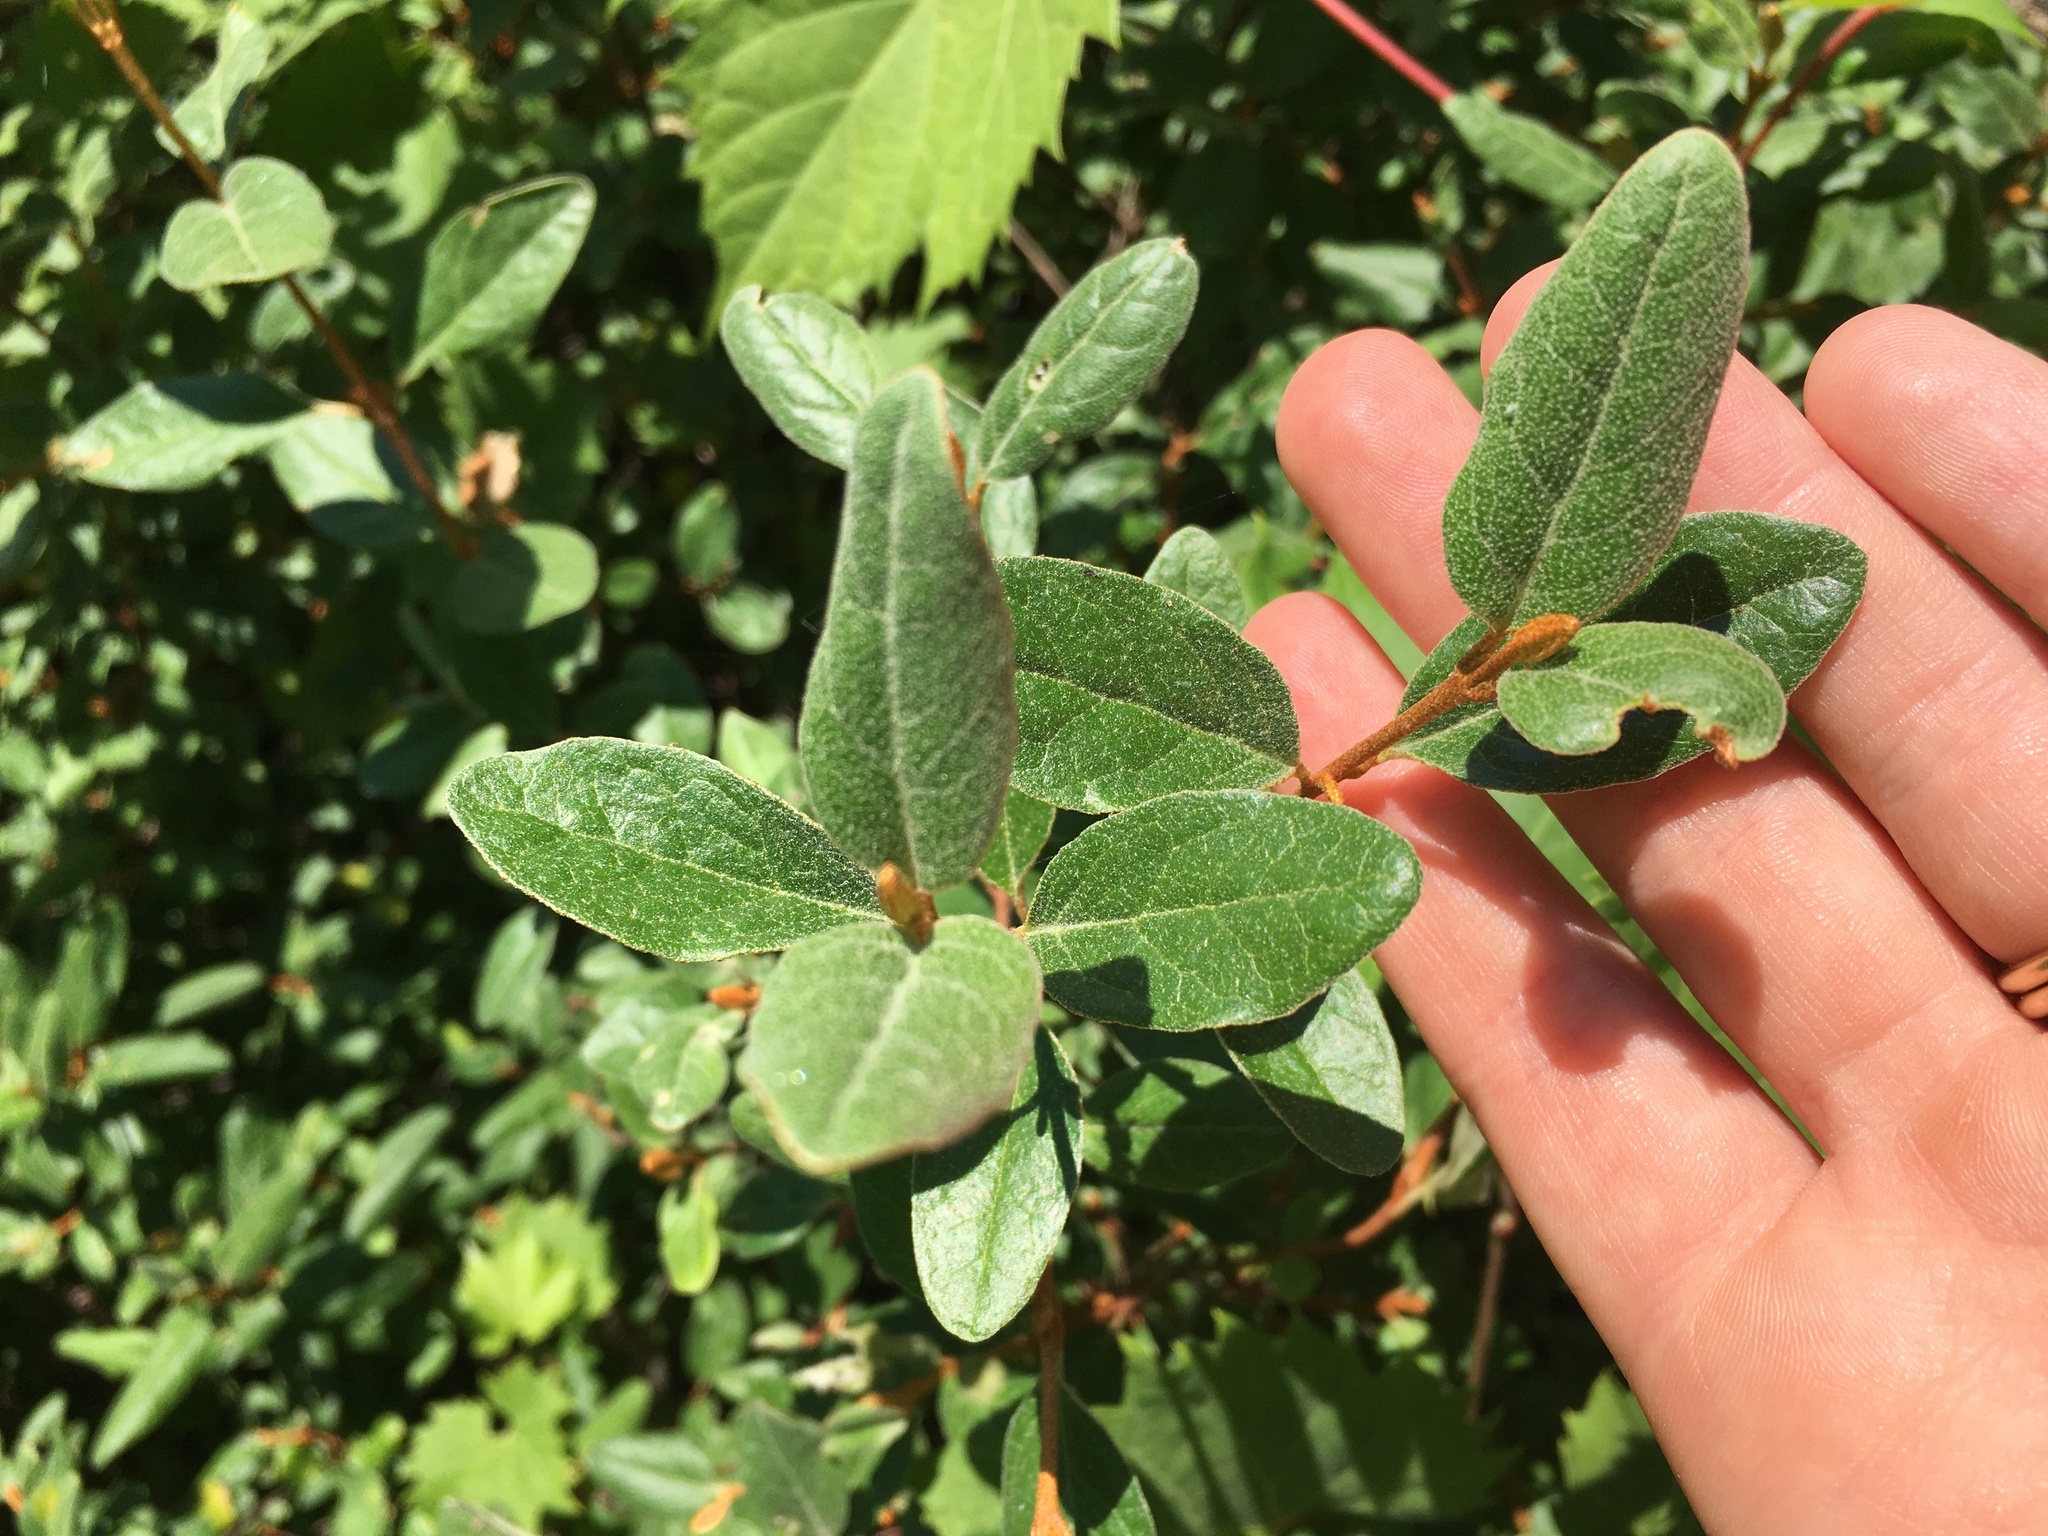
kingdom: Plantae
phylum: Tracheophyta
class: Magnoliopsida
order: Rosales
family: Elaeagnaceae
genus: Shepherdia
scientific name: Shepherdia canadensis
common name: Soapberry
